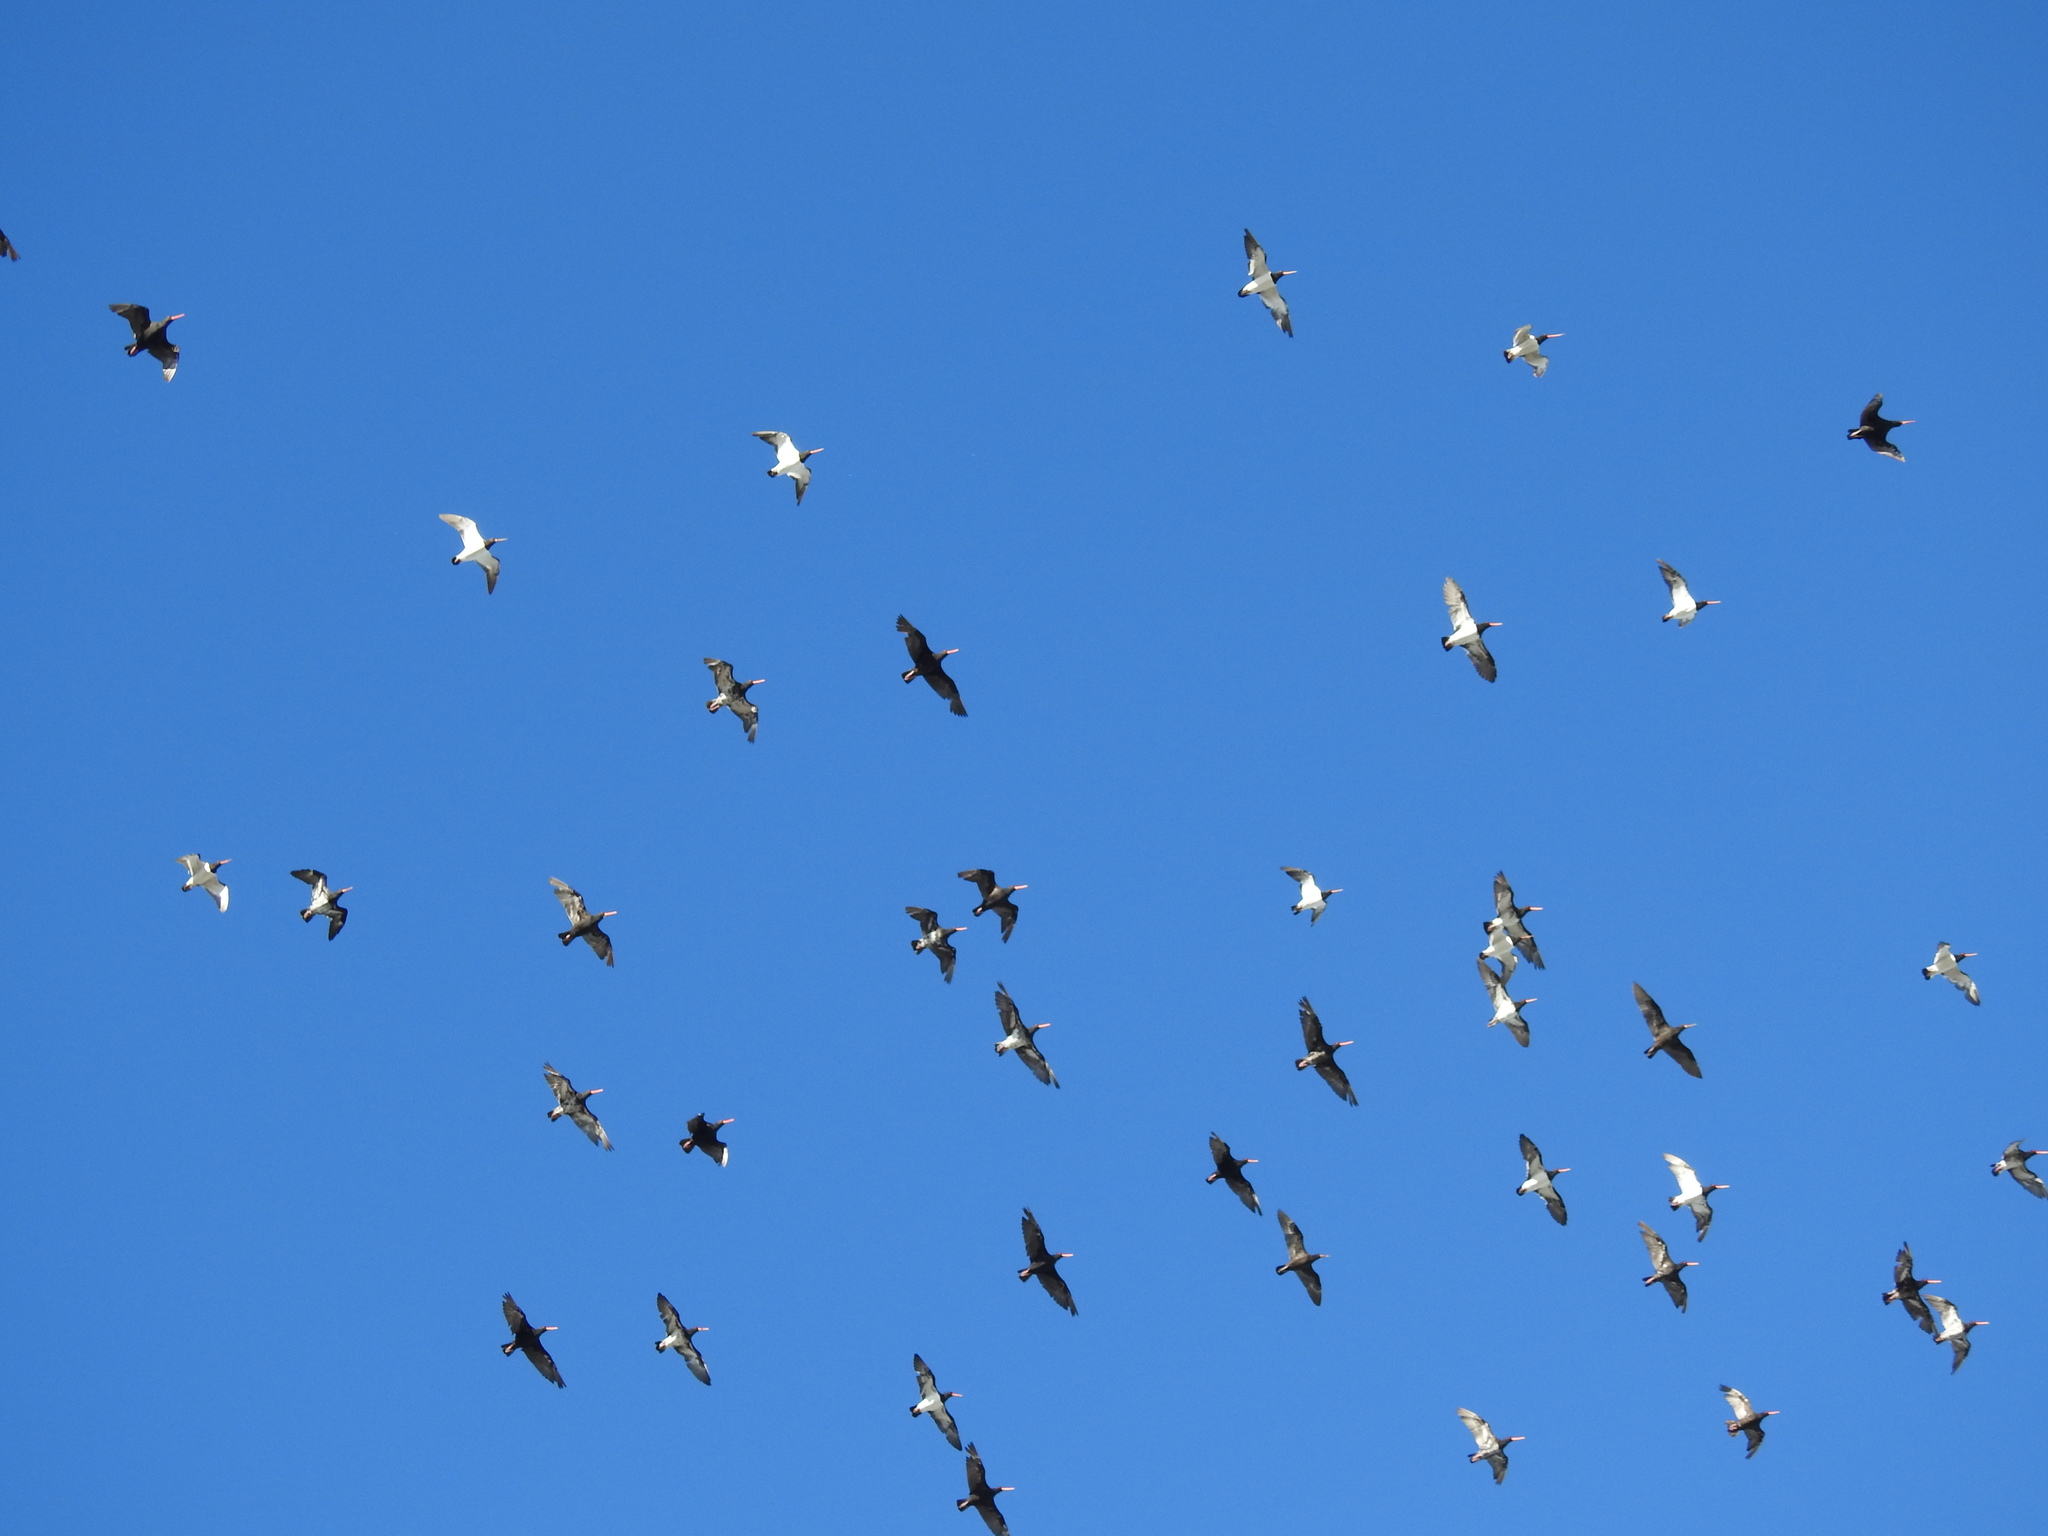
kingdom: Animalia
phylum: Chordata
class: Aves
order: Charadriiformes
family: Haematopodidae
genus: Haematopus
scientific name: Haematopus unicolor
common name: Variable oystercatcher
